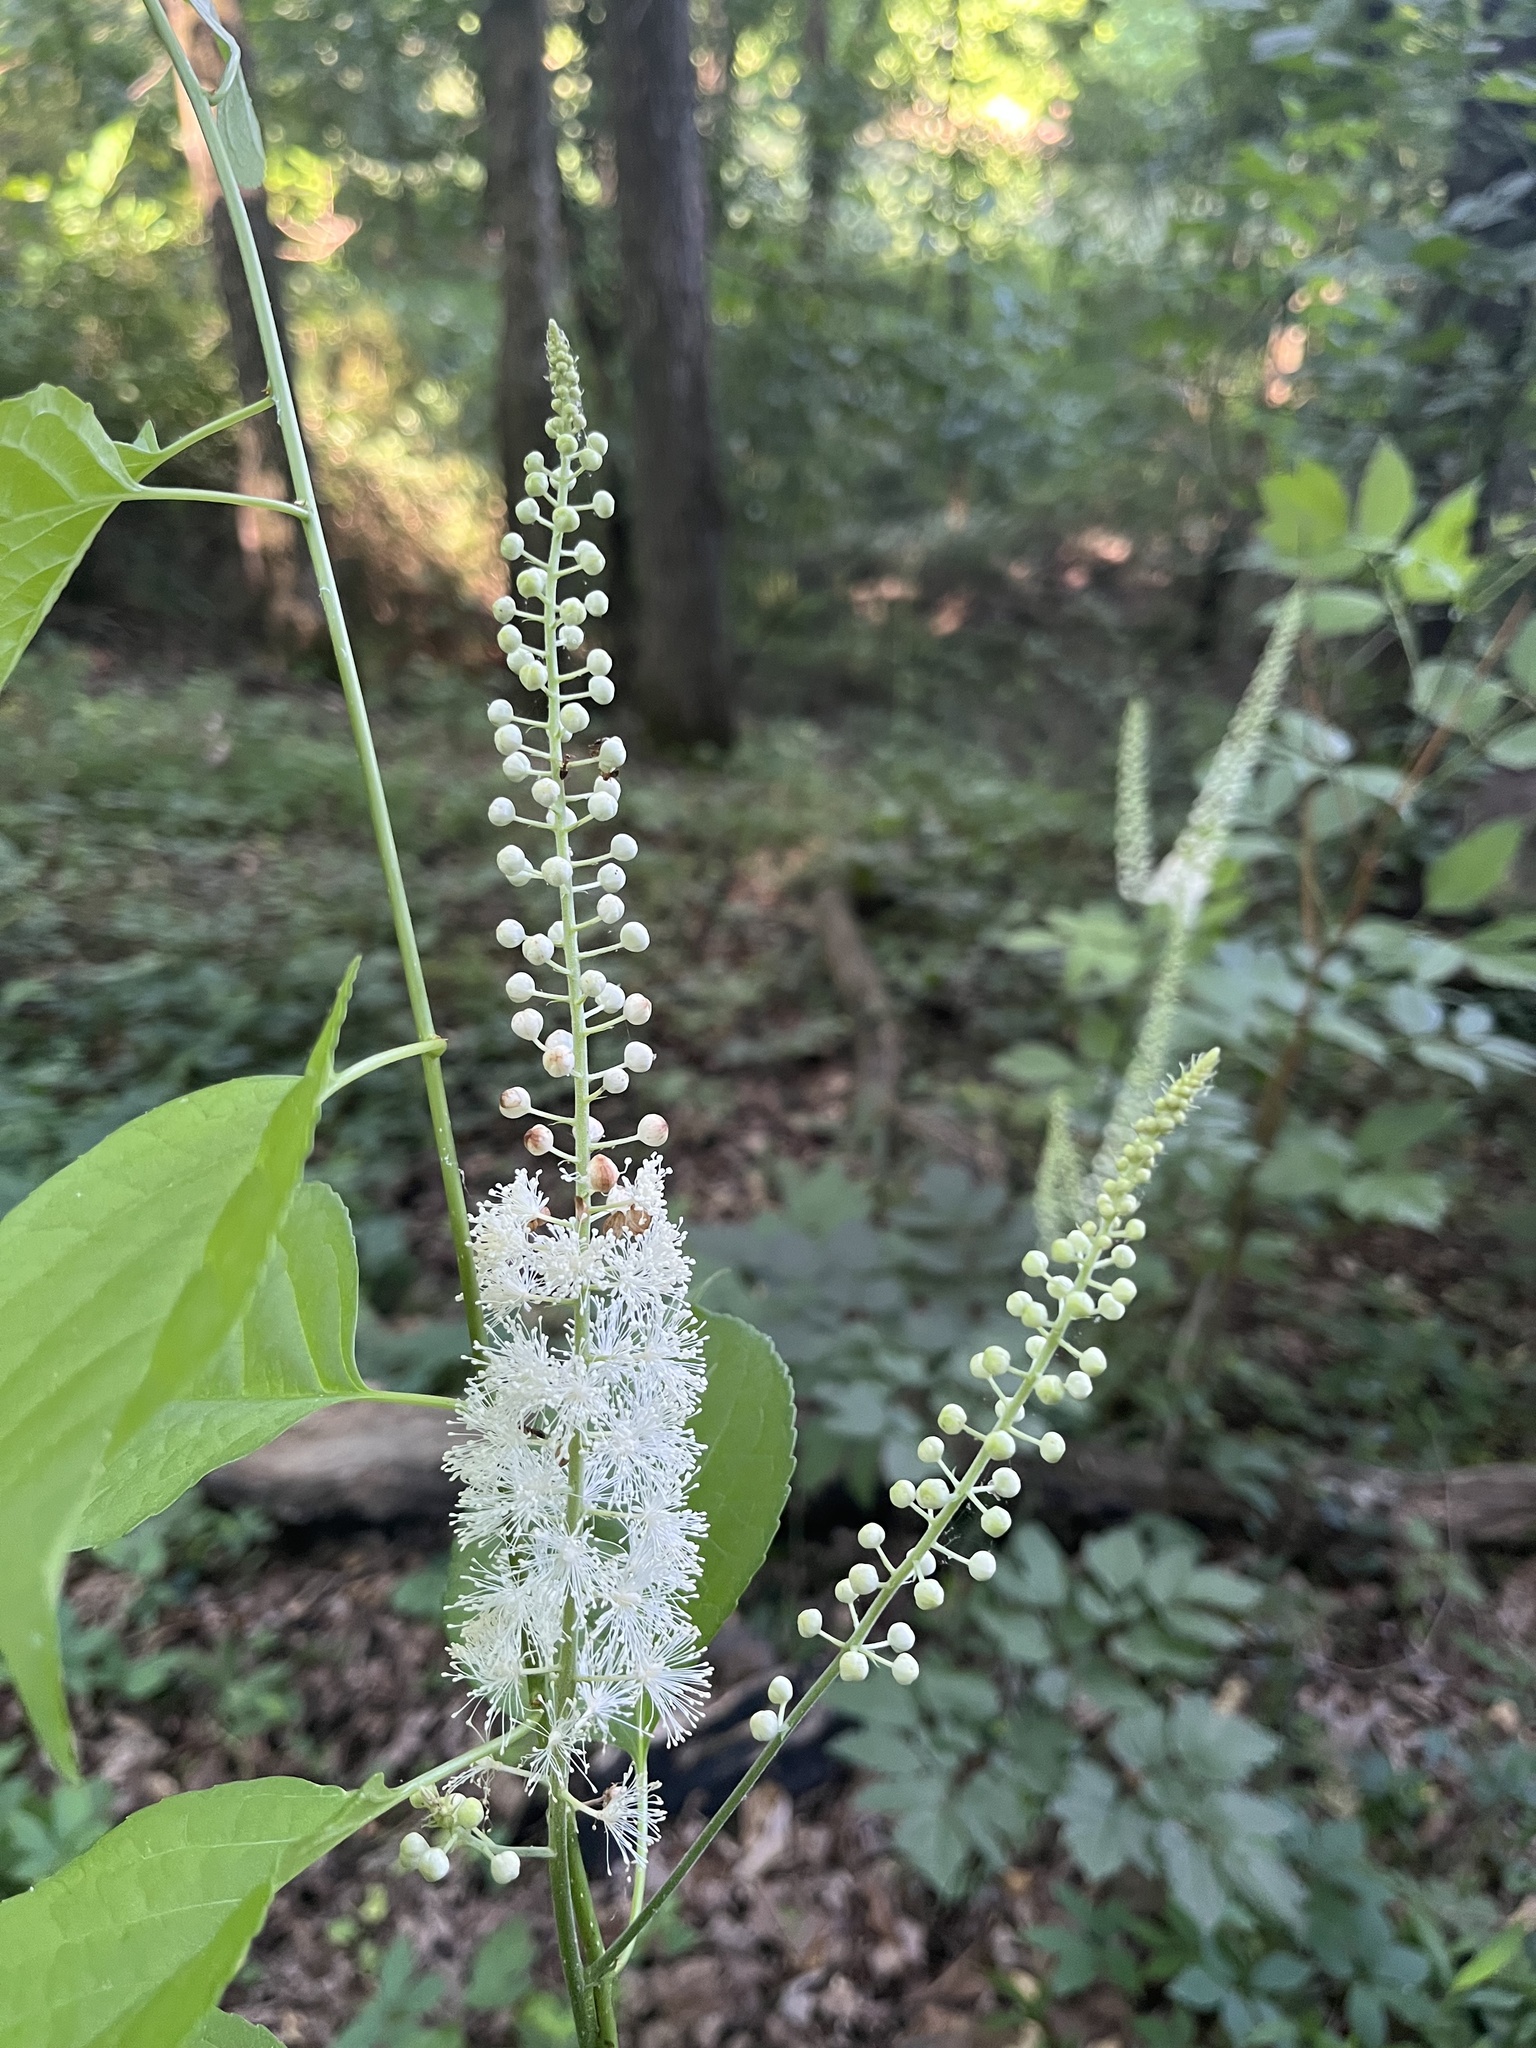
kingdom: Plantae
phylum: Tracheophyta
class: Magnoliopsida
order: Ranunculales
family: Ranunculaceae
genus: Actaea
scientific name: Actaea racemosa
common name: Black cohosh
